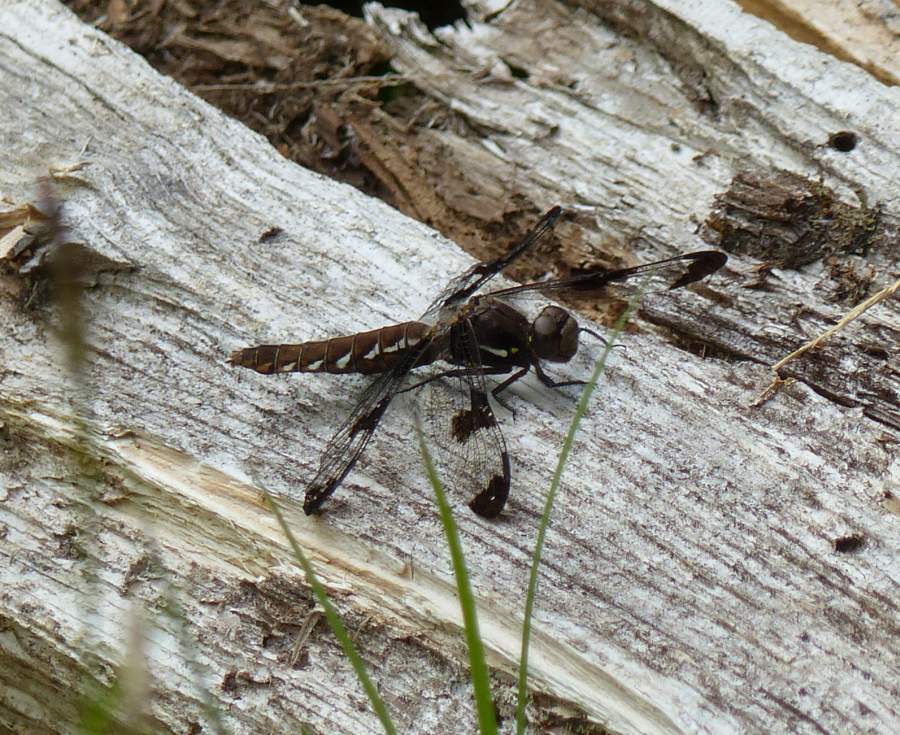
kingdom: Animalia
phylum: Arthropoda
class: Insecta
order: Odonata
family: Libellulidae
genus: Plathemis
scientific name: Plathemis lydia
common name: Common whitetail
